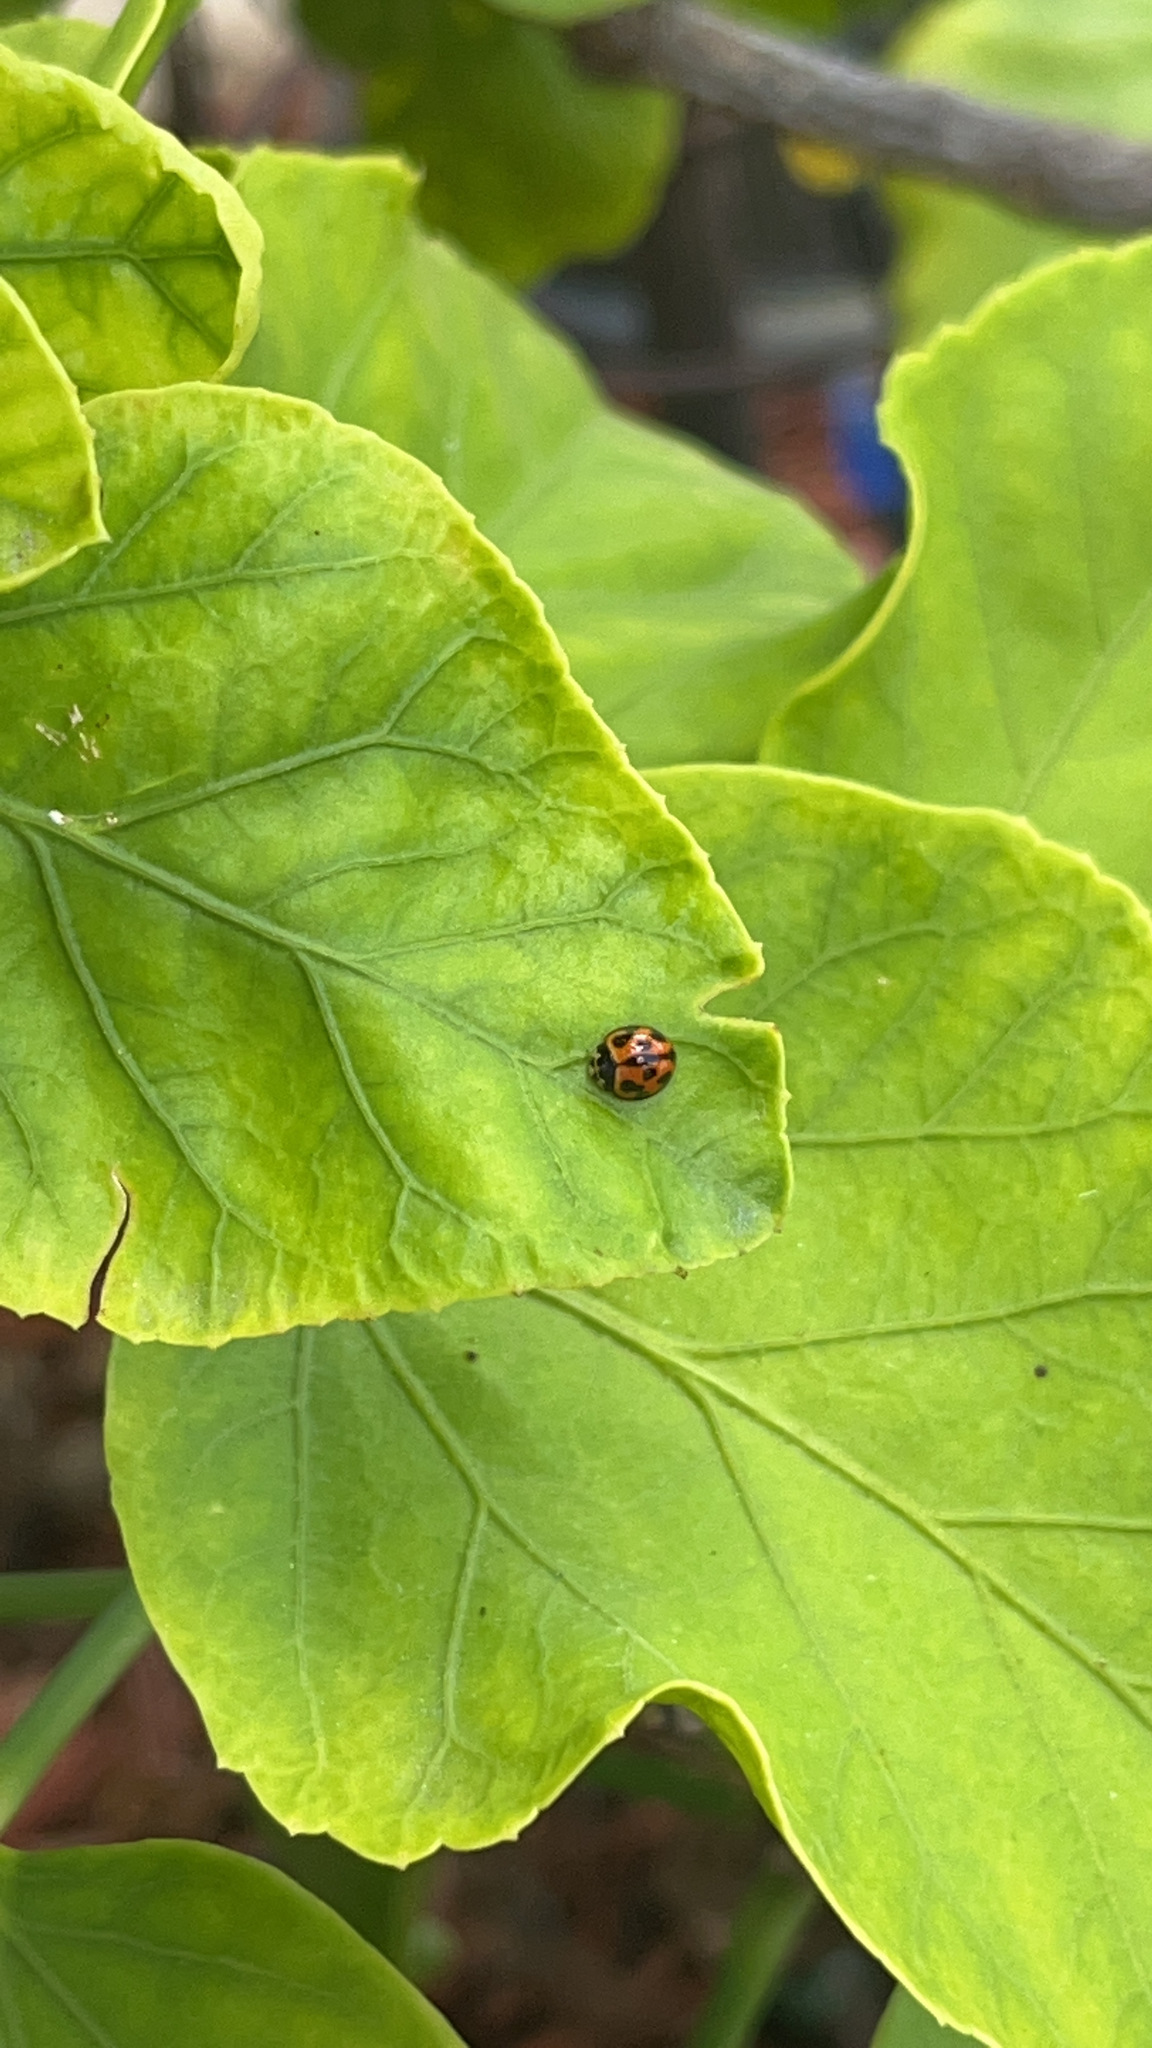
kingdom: Animalia
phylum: Arthropoda
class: Insecta
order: Coleoptera
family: Coccinellidae
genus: Coelophora
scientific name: Coelophora inaequalis
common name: Common australian lady beetle
